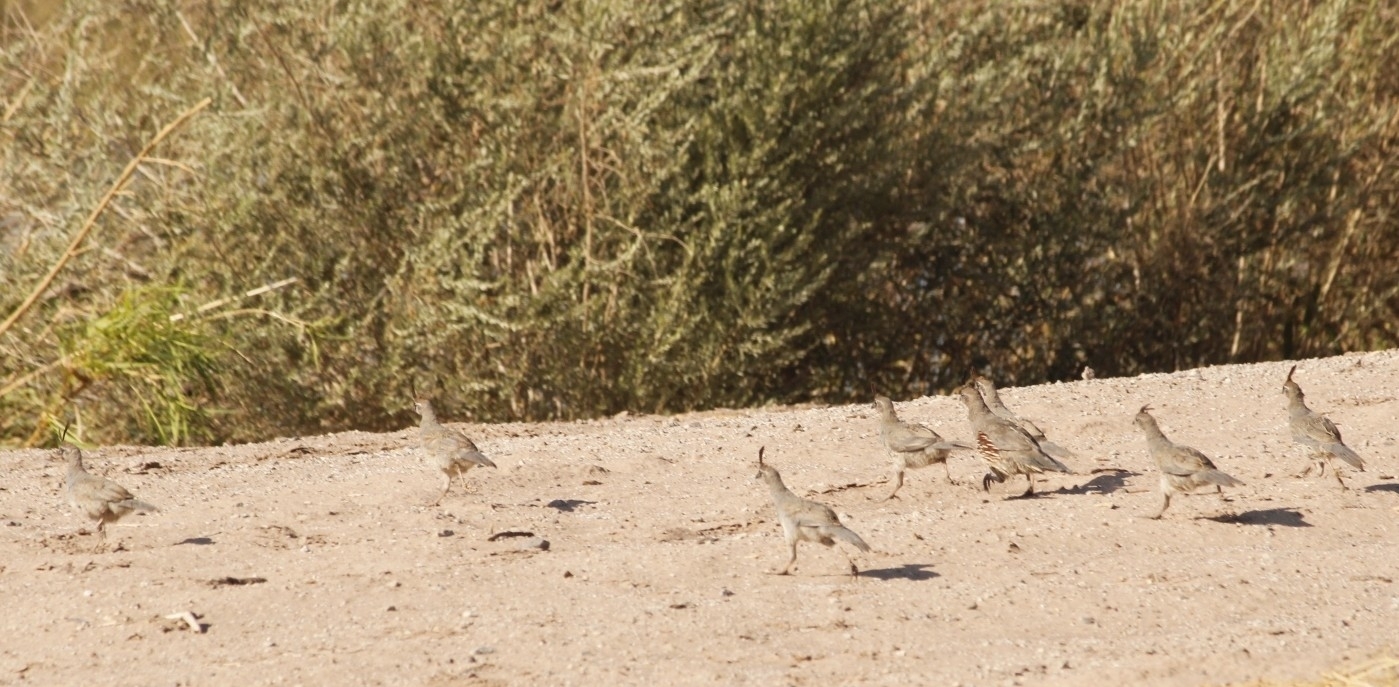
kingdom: Animalia
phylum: Chordata
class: Aves
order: Galliformes
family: Odontophoridae
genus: Callipepla
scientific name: Callipepla gambelii
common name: Gambel's quail
